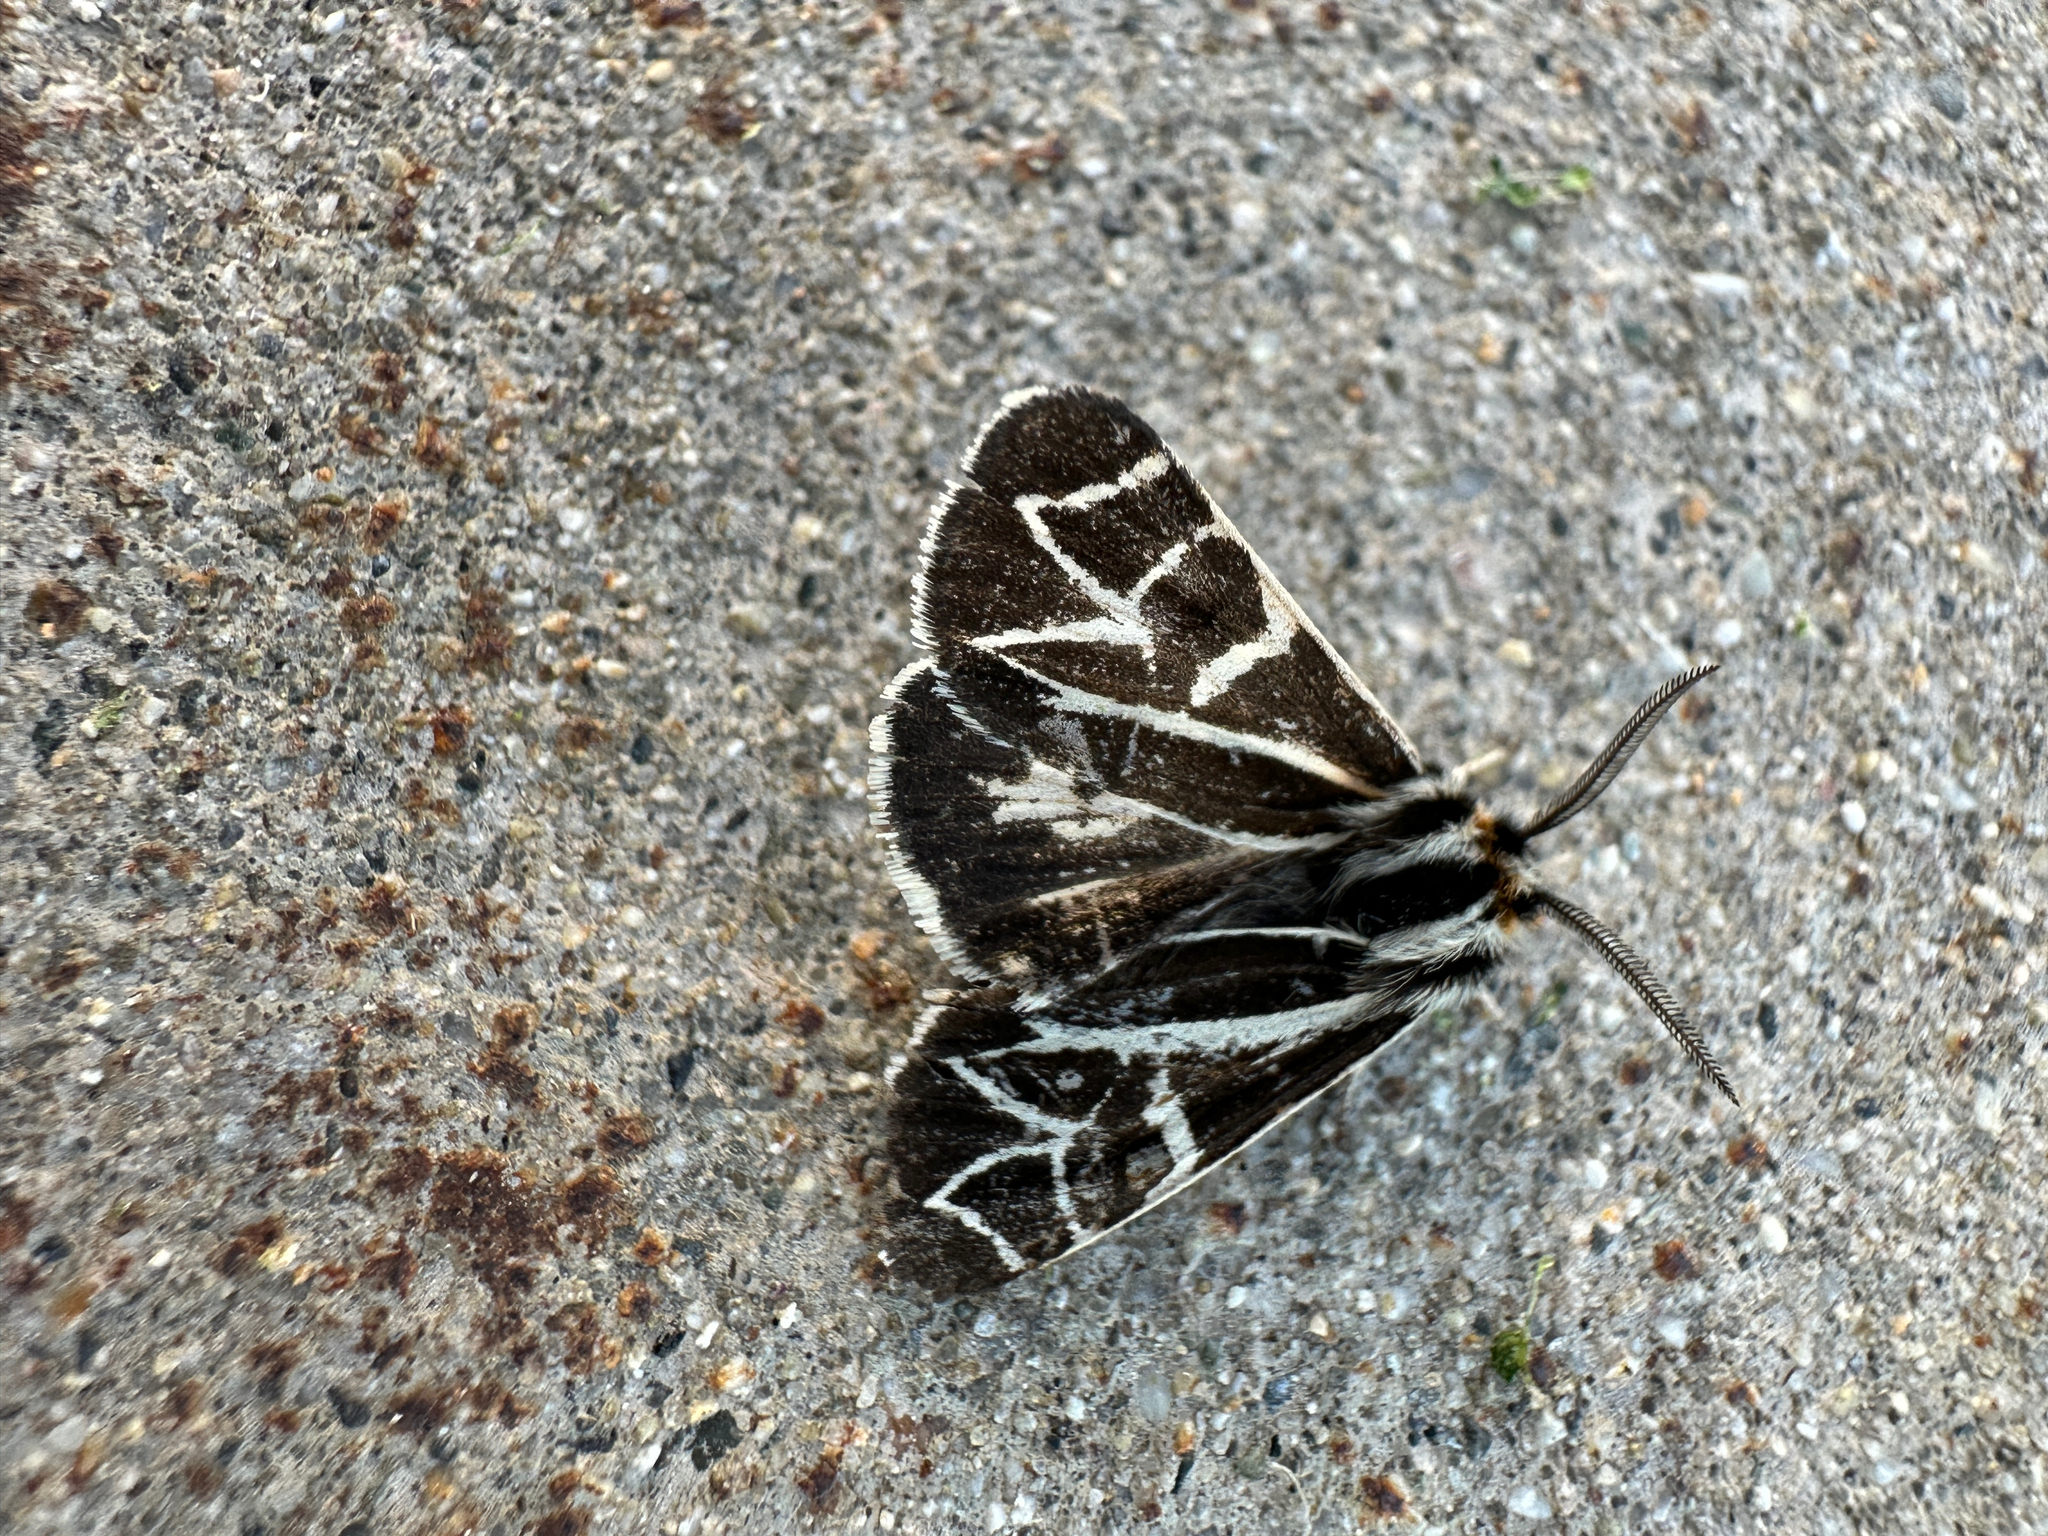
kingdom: Animalia
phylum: Arthropoda
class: Insecta
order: Lepidoptera
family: Erebidae
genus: Apantesis
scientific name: Apantesis
